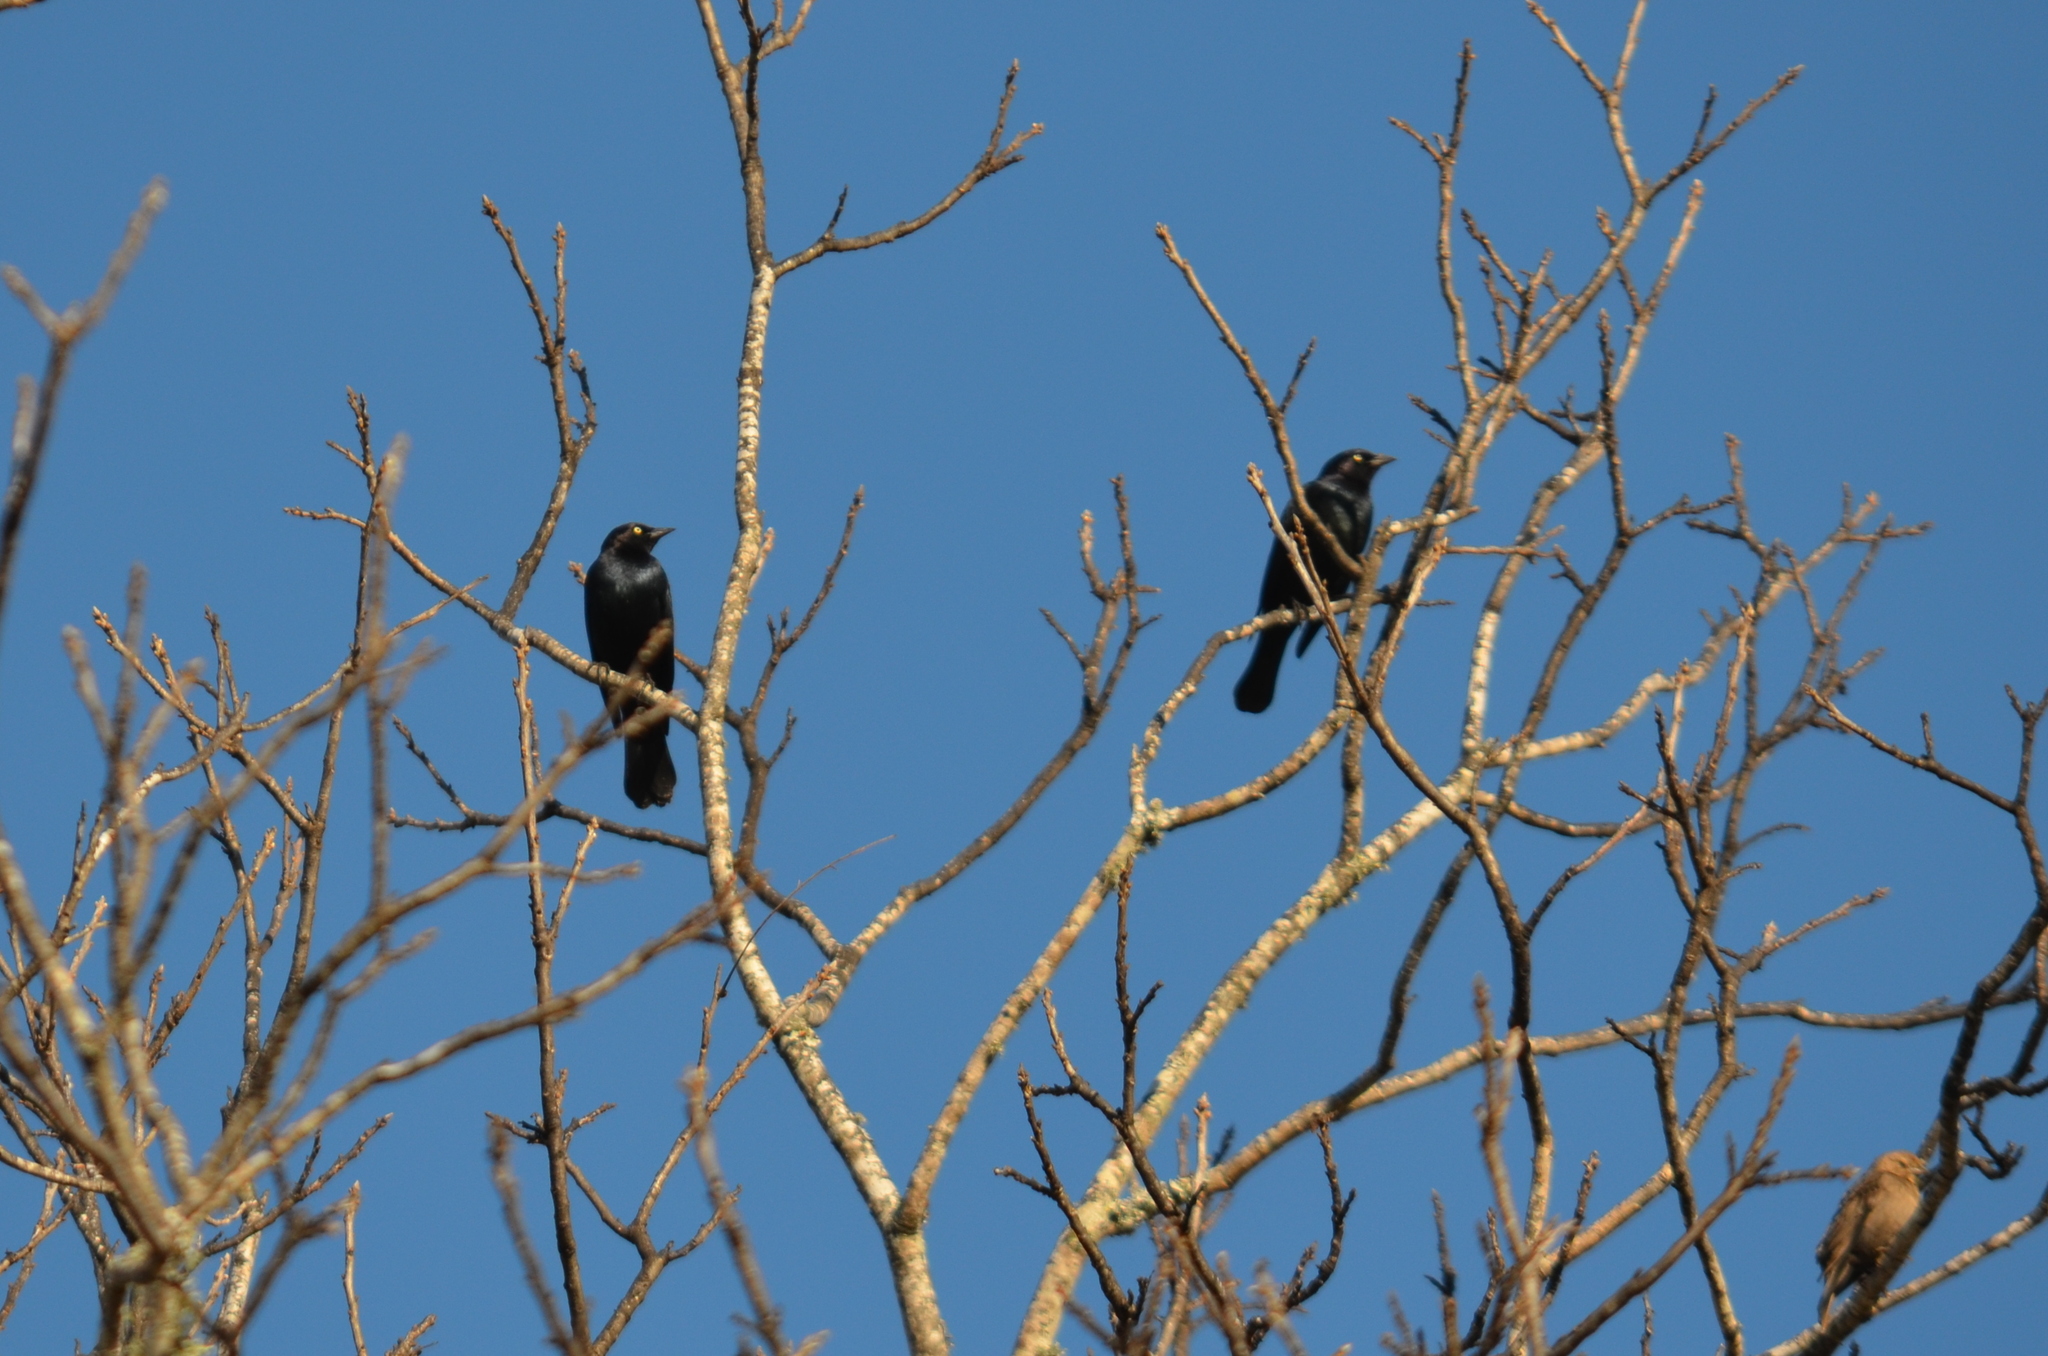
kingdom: Animalia
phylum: Chordata
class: Aves
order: Passeriformes
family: Icteridae
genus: Euphagus
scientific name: Euphagus carolinus
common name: Rusty blackbird
